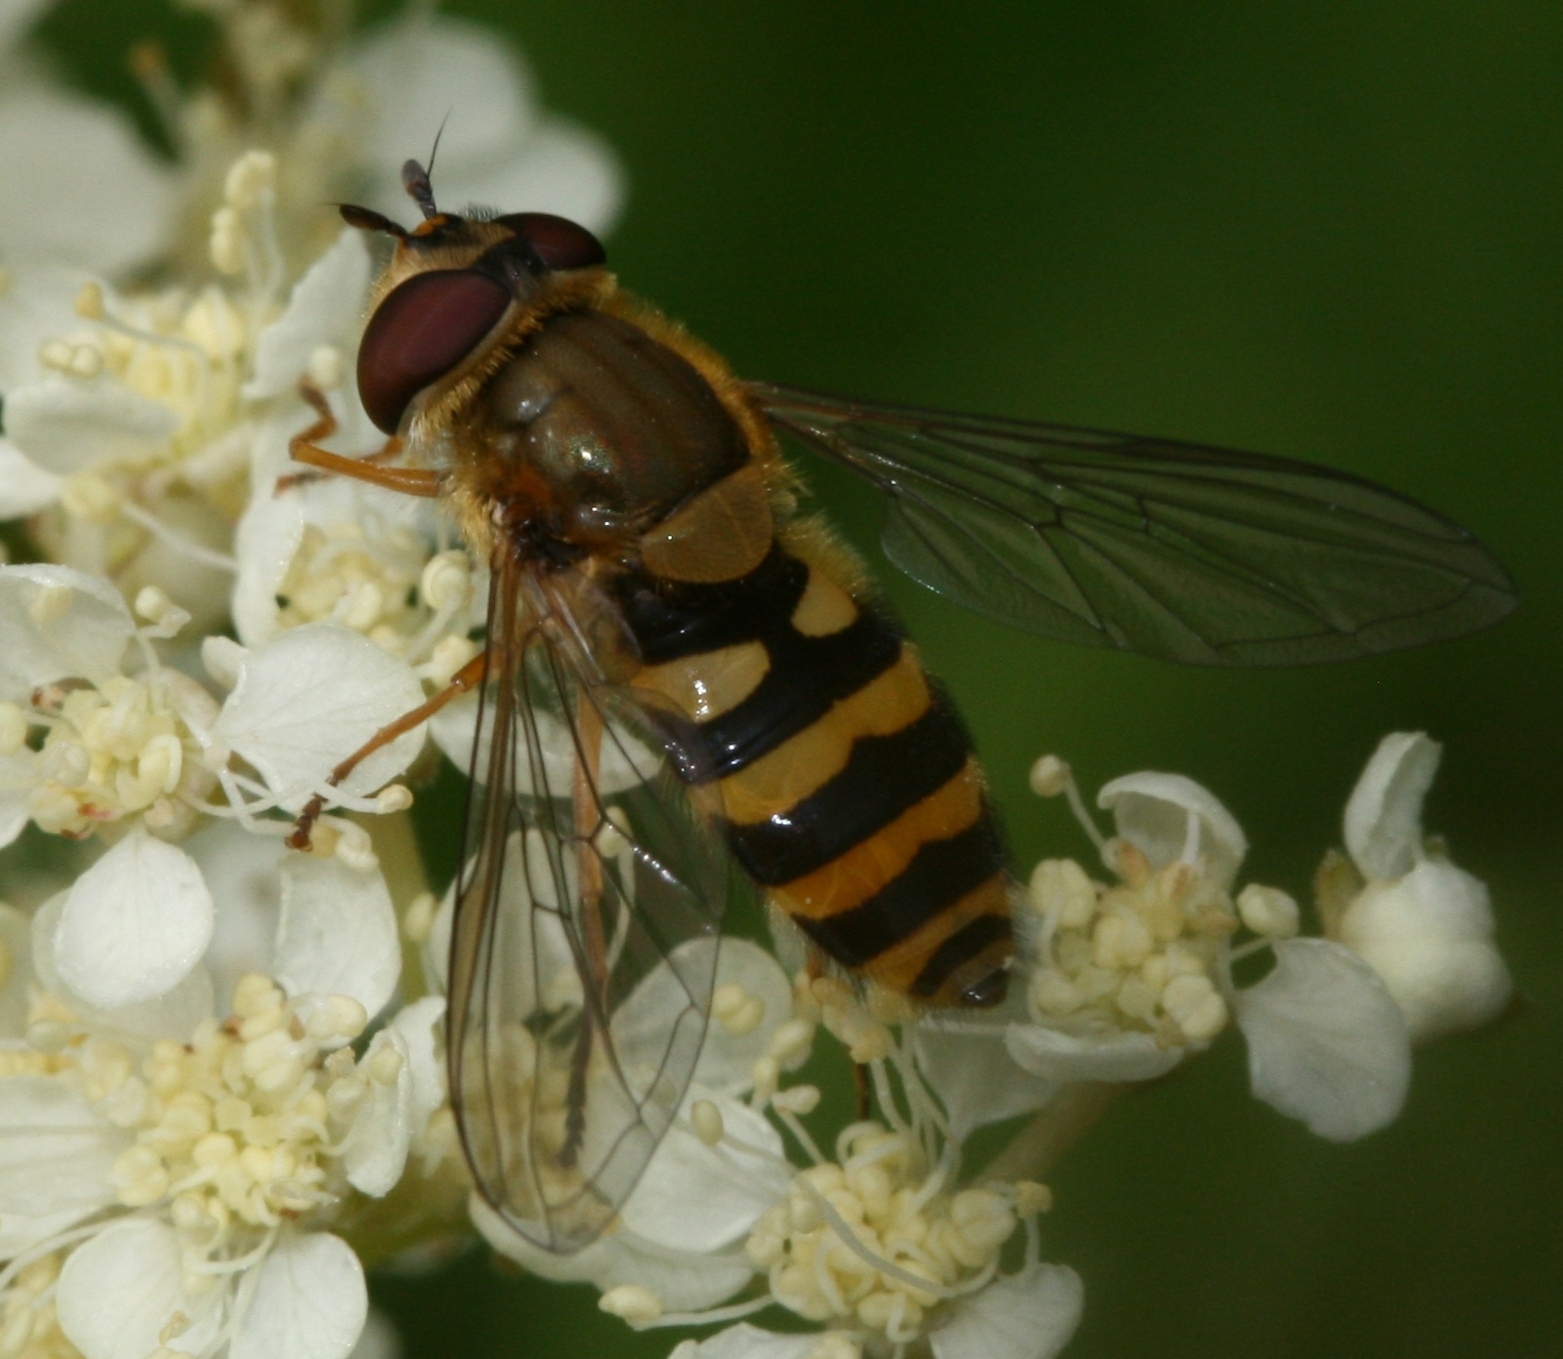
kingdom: Animalia
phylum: Arthropoda
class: Insecta
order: Diptera
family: Syrphidae
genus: Syrphus
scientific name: Syrphus ribesii
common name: Common flower fly
